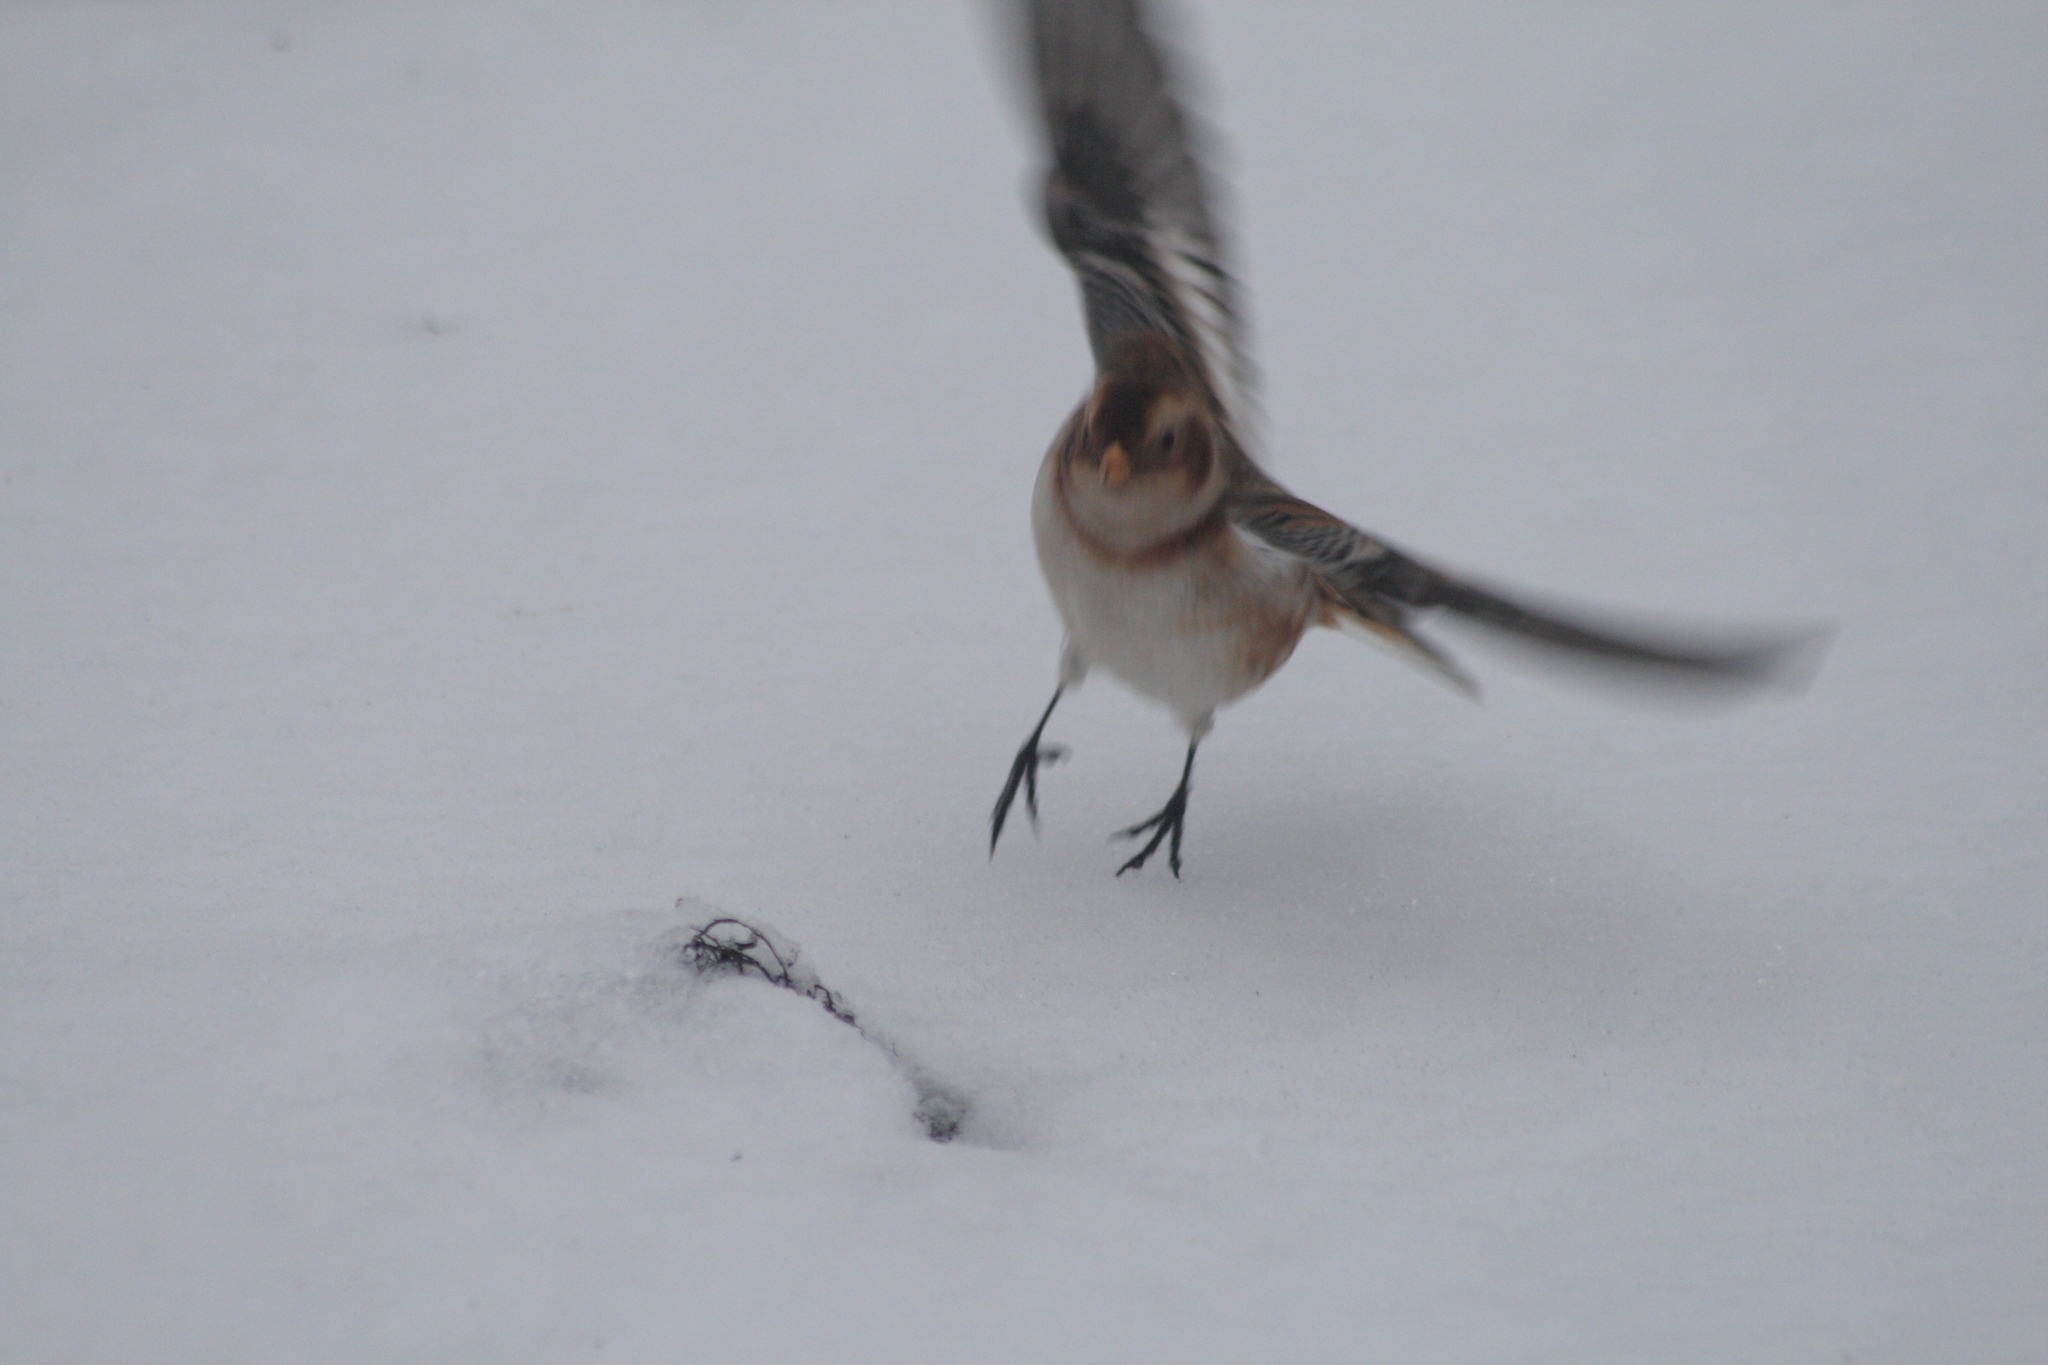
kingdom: Animalia
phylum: Chordata
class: Aves
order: Passeriformes
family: Calcariidae
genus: Plectrophenax
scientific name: Plectrophenax nivalis
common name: Snow bunting
